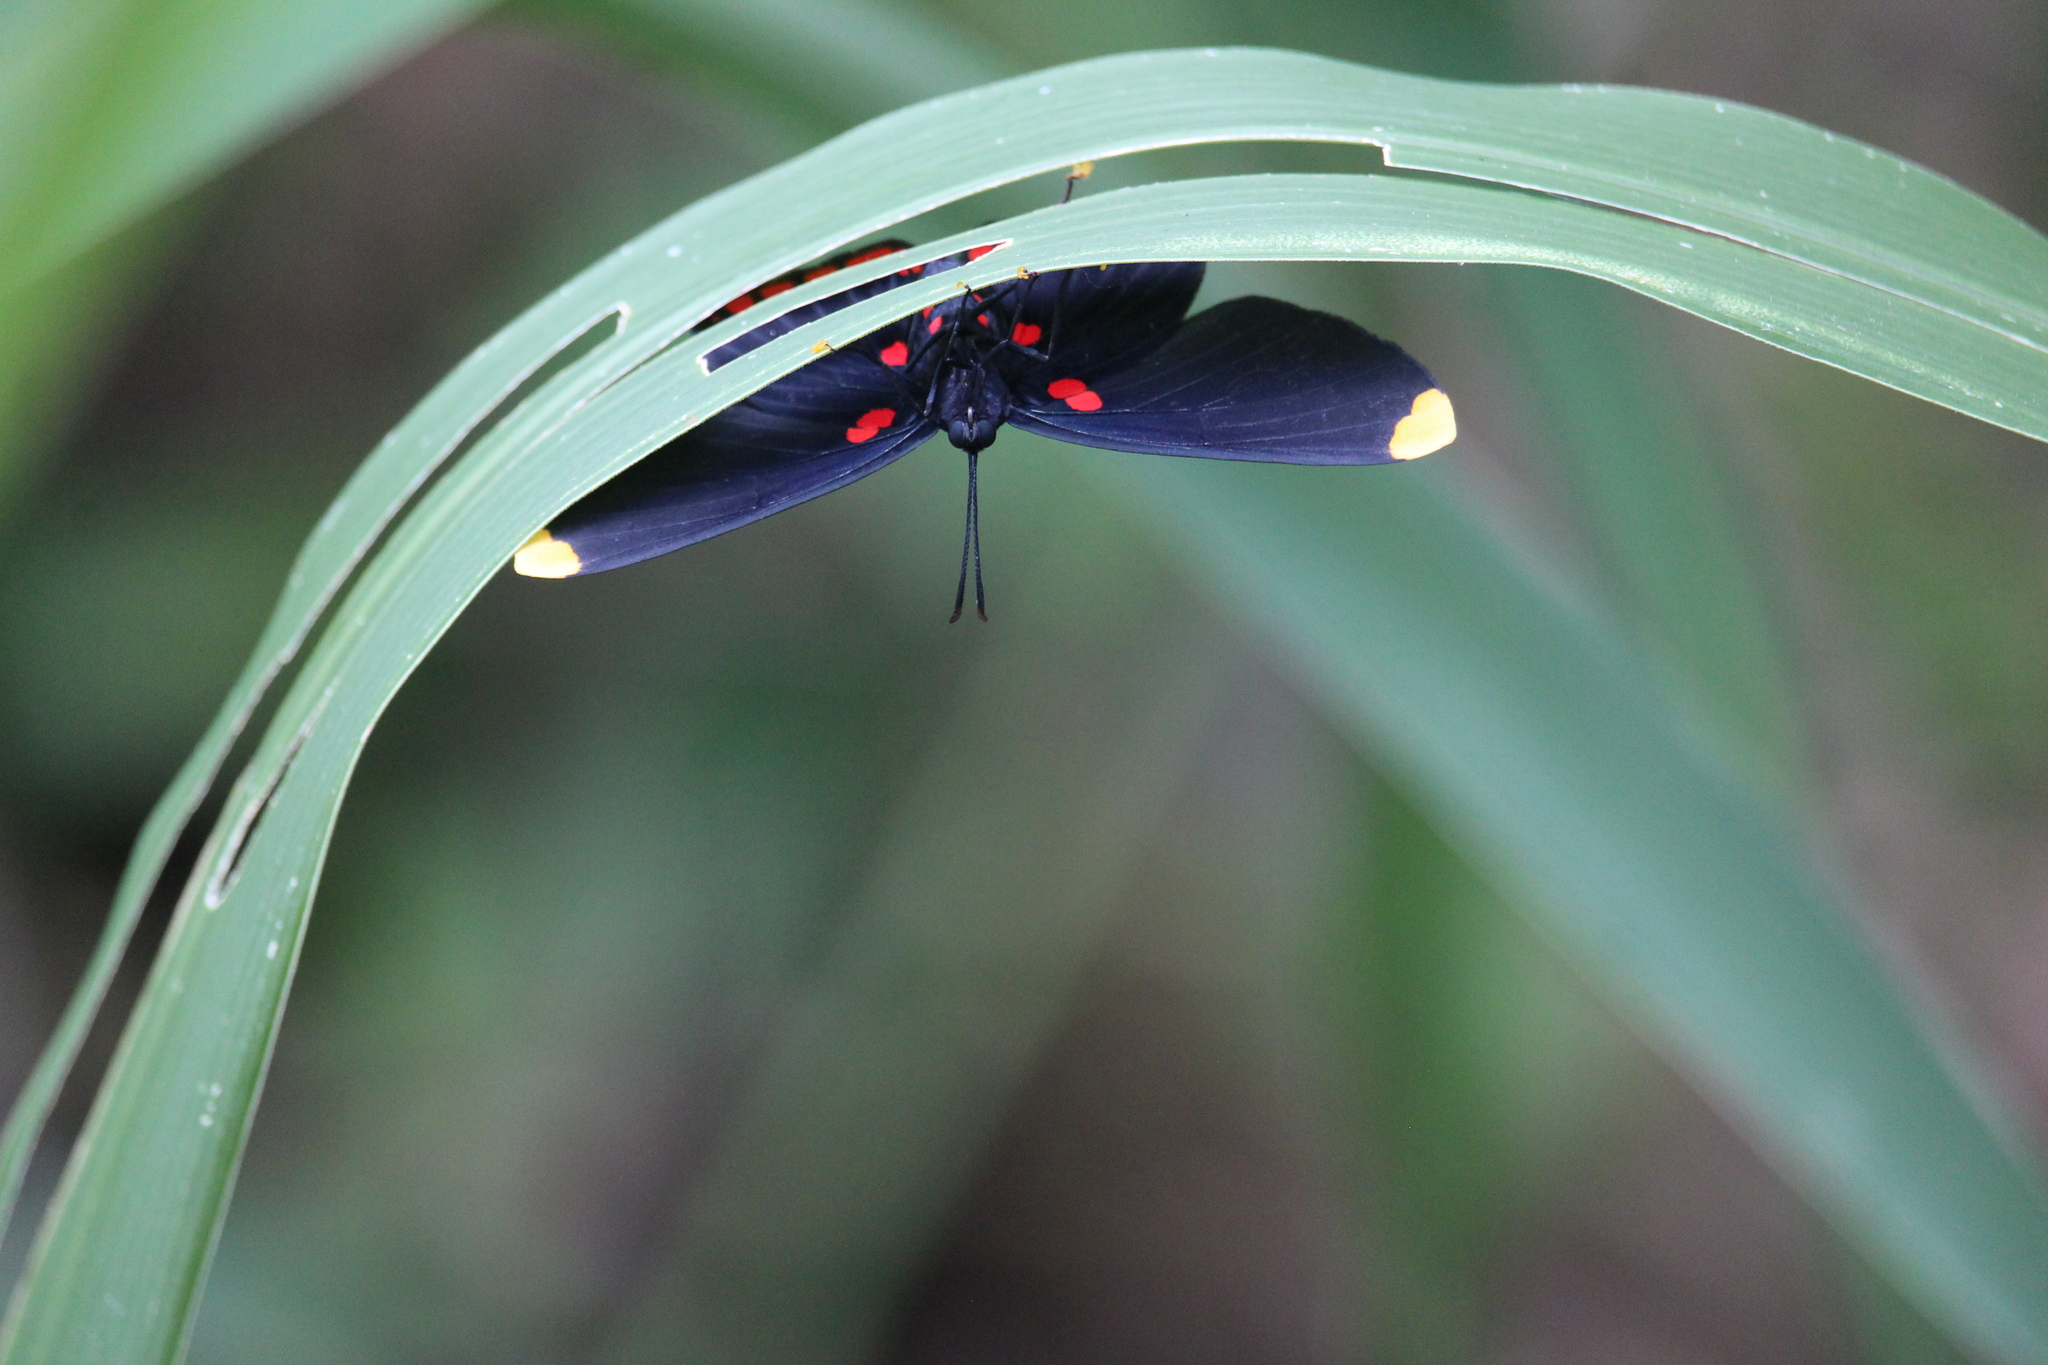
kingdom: Animalia
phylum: Arthropoda
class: Insecta
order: Lepidoptera
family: Lycaenidae
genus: Melanis
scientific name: Melanis pixe
